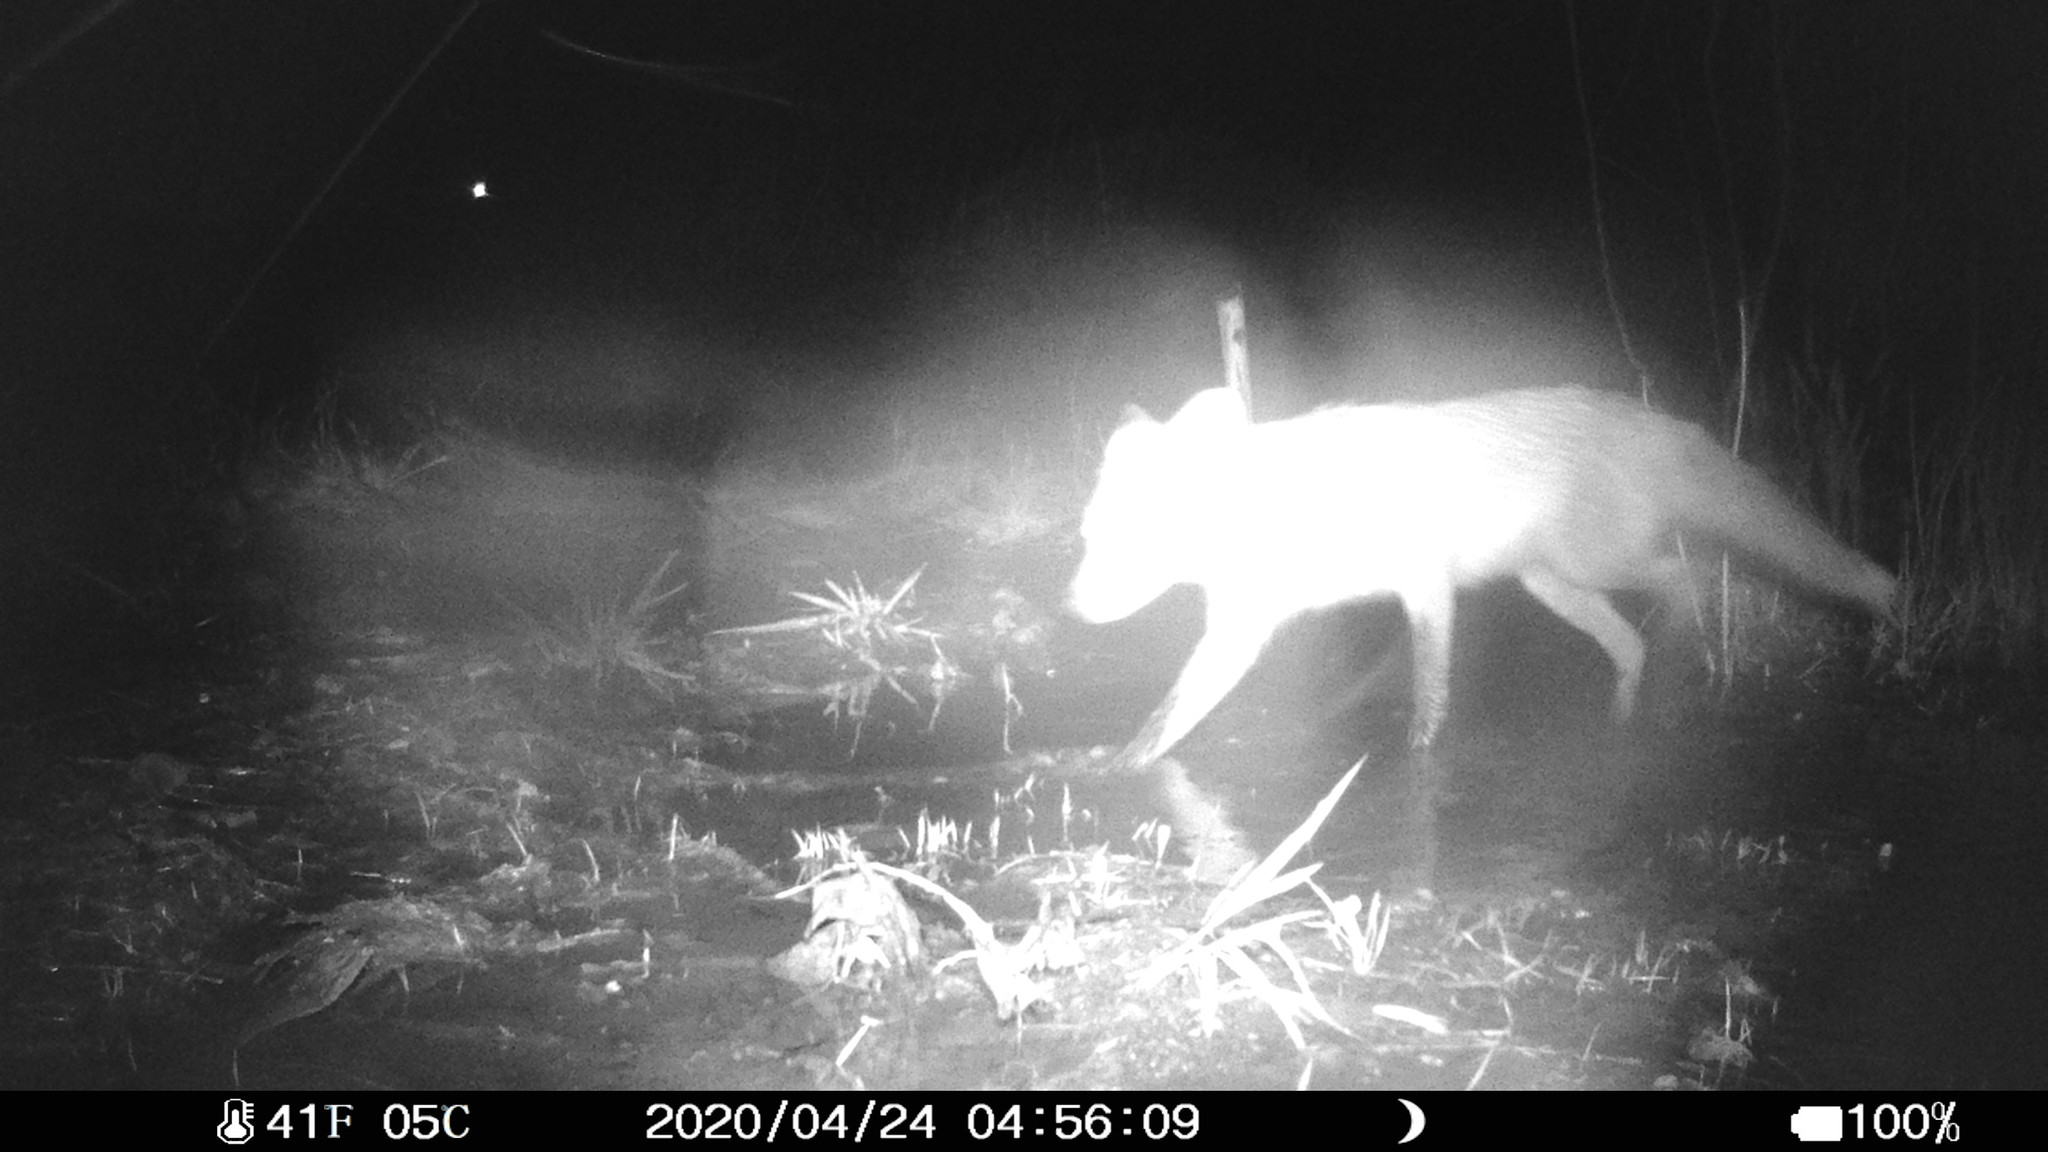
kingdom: Animalia
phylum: Chordata
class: Mammalia
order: Carnivora
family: Canidae
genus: Vulpes
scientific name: Vulpes vulpes
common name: Red fox
